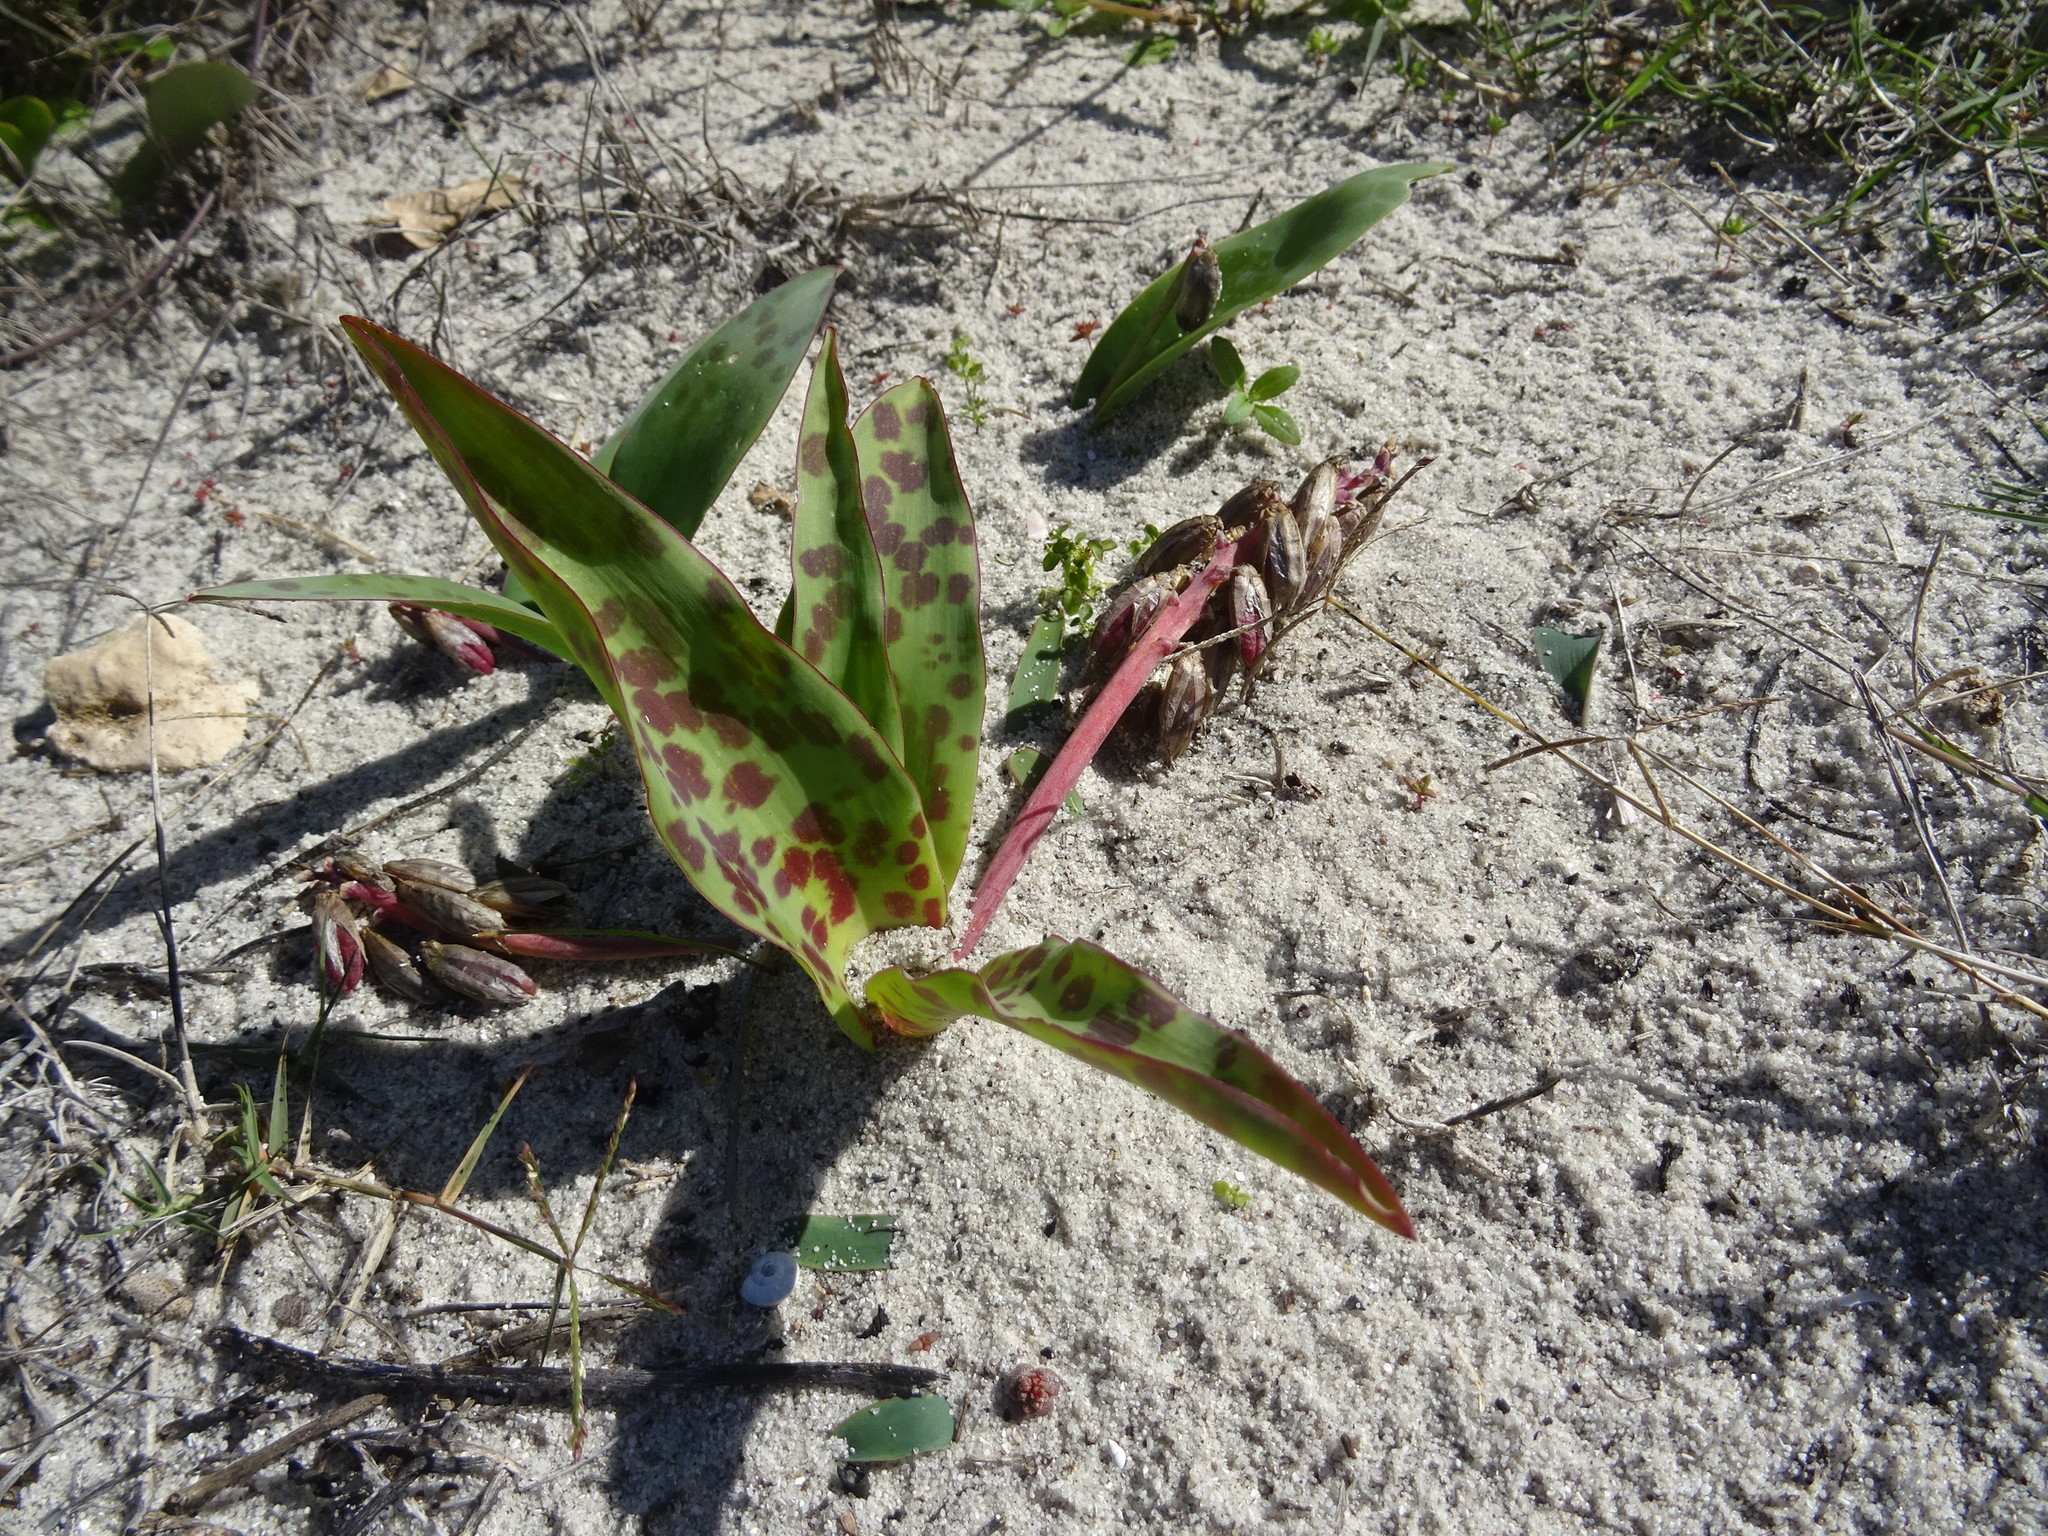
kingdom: Plantae
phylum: Tracheophyta
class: Liliopsida
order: Asparagales
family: Asparagaceae
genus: Lachenalia
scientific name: Lachenalia bulbifera
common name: Red lachenalia
